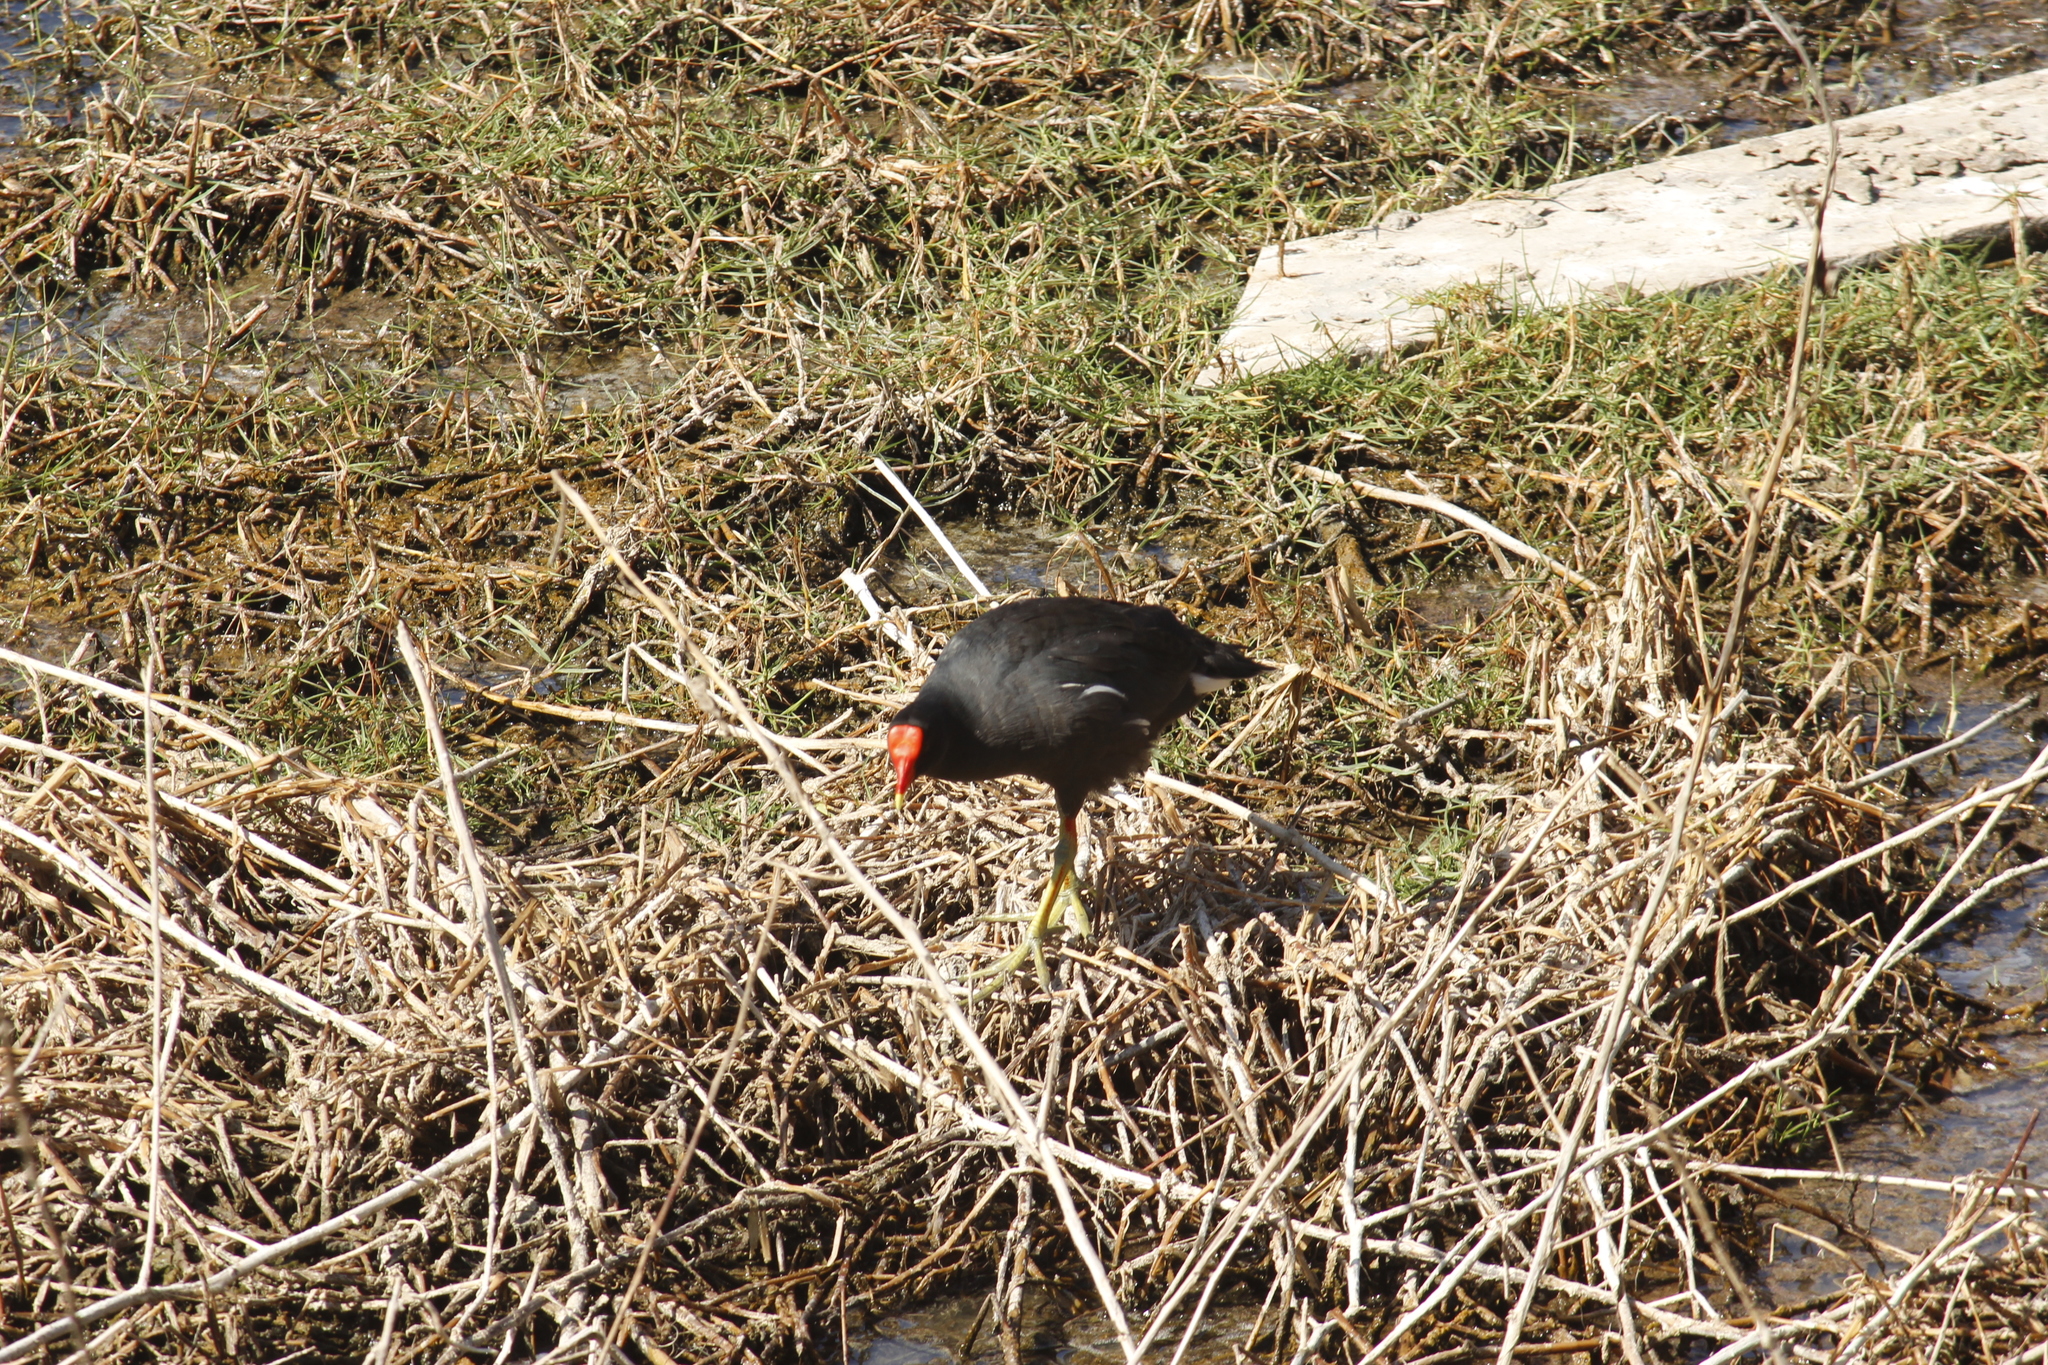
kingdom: Animalia
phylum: Chordata
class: Aves
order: Gruiformes
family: Rallidae
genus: Gallinula
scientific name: Gallinula chloropus
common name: Common moorhen
